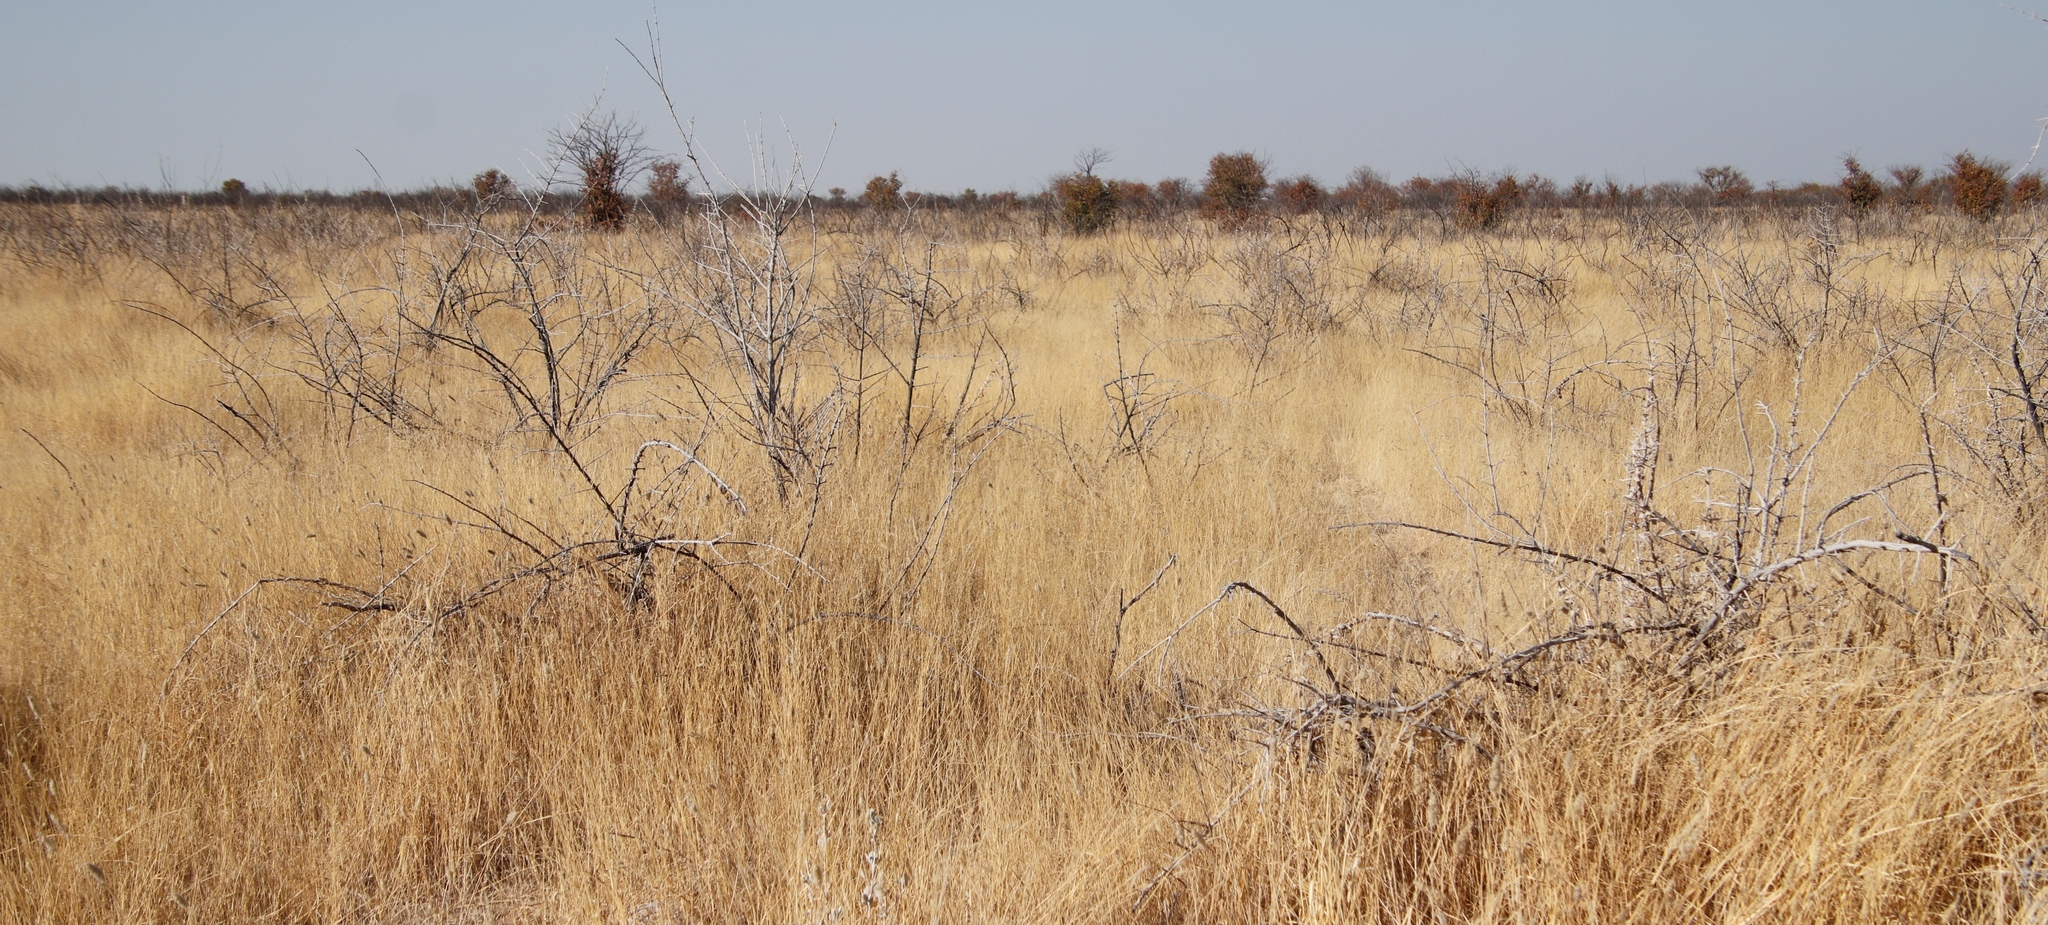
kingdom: Plantae
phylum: Tracheophyta
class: Magnoliopsida
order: Lamiales
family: Bignoniaceae
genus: Catophractes
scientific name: Catophractes alexandri
